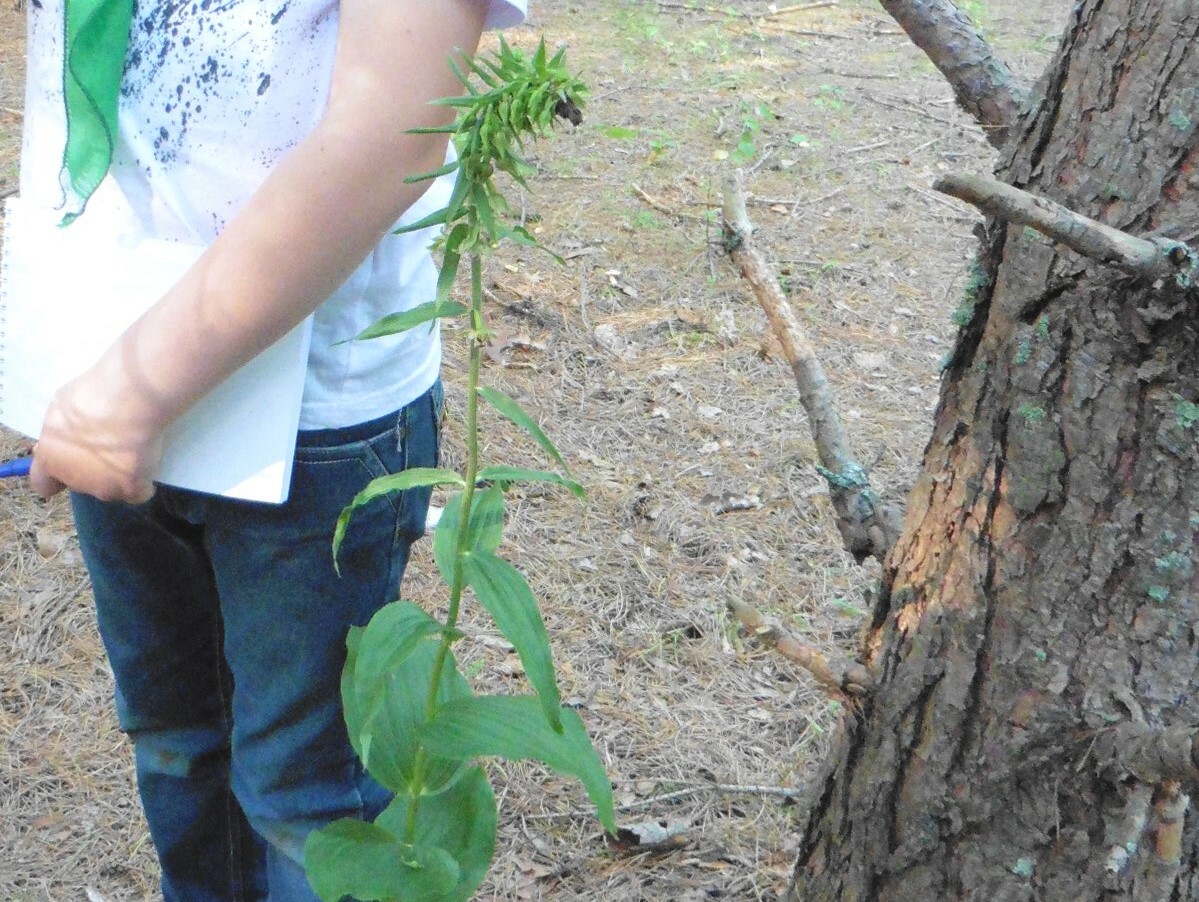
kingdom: Plantae
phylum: Tracheophyta
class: Liliopsida
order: Asparagales
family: Orchidaceae
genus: Epipactis
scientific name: Epipactis helleborine
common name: Broad-leaved helleborine
